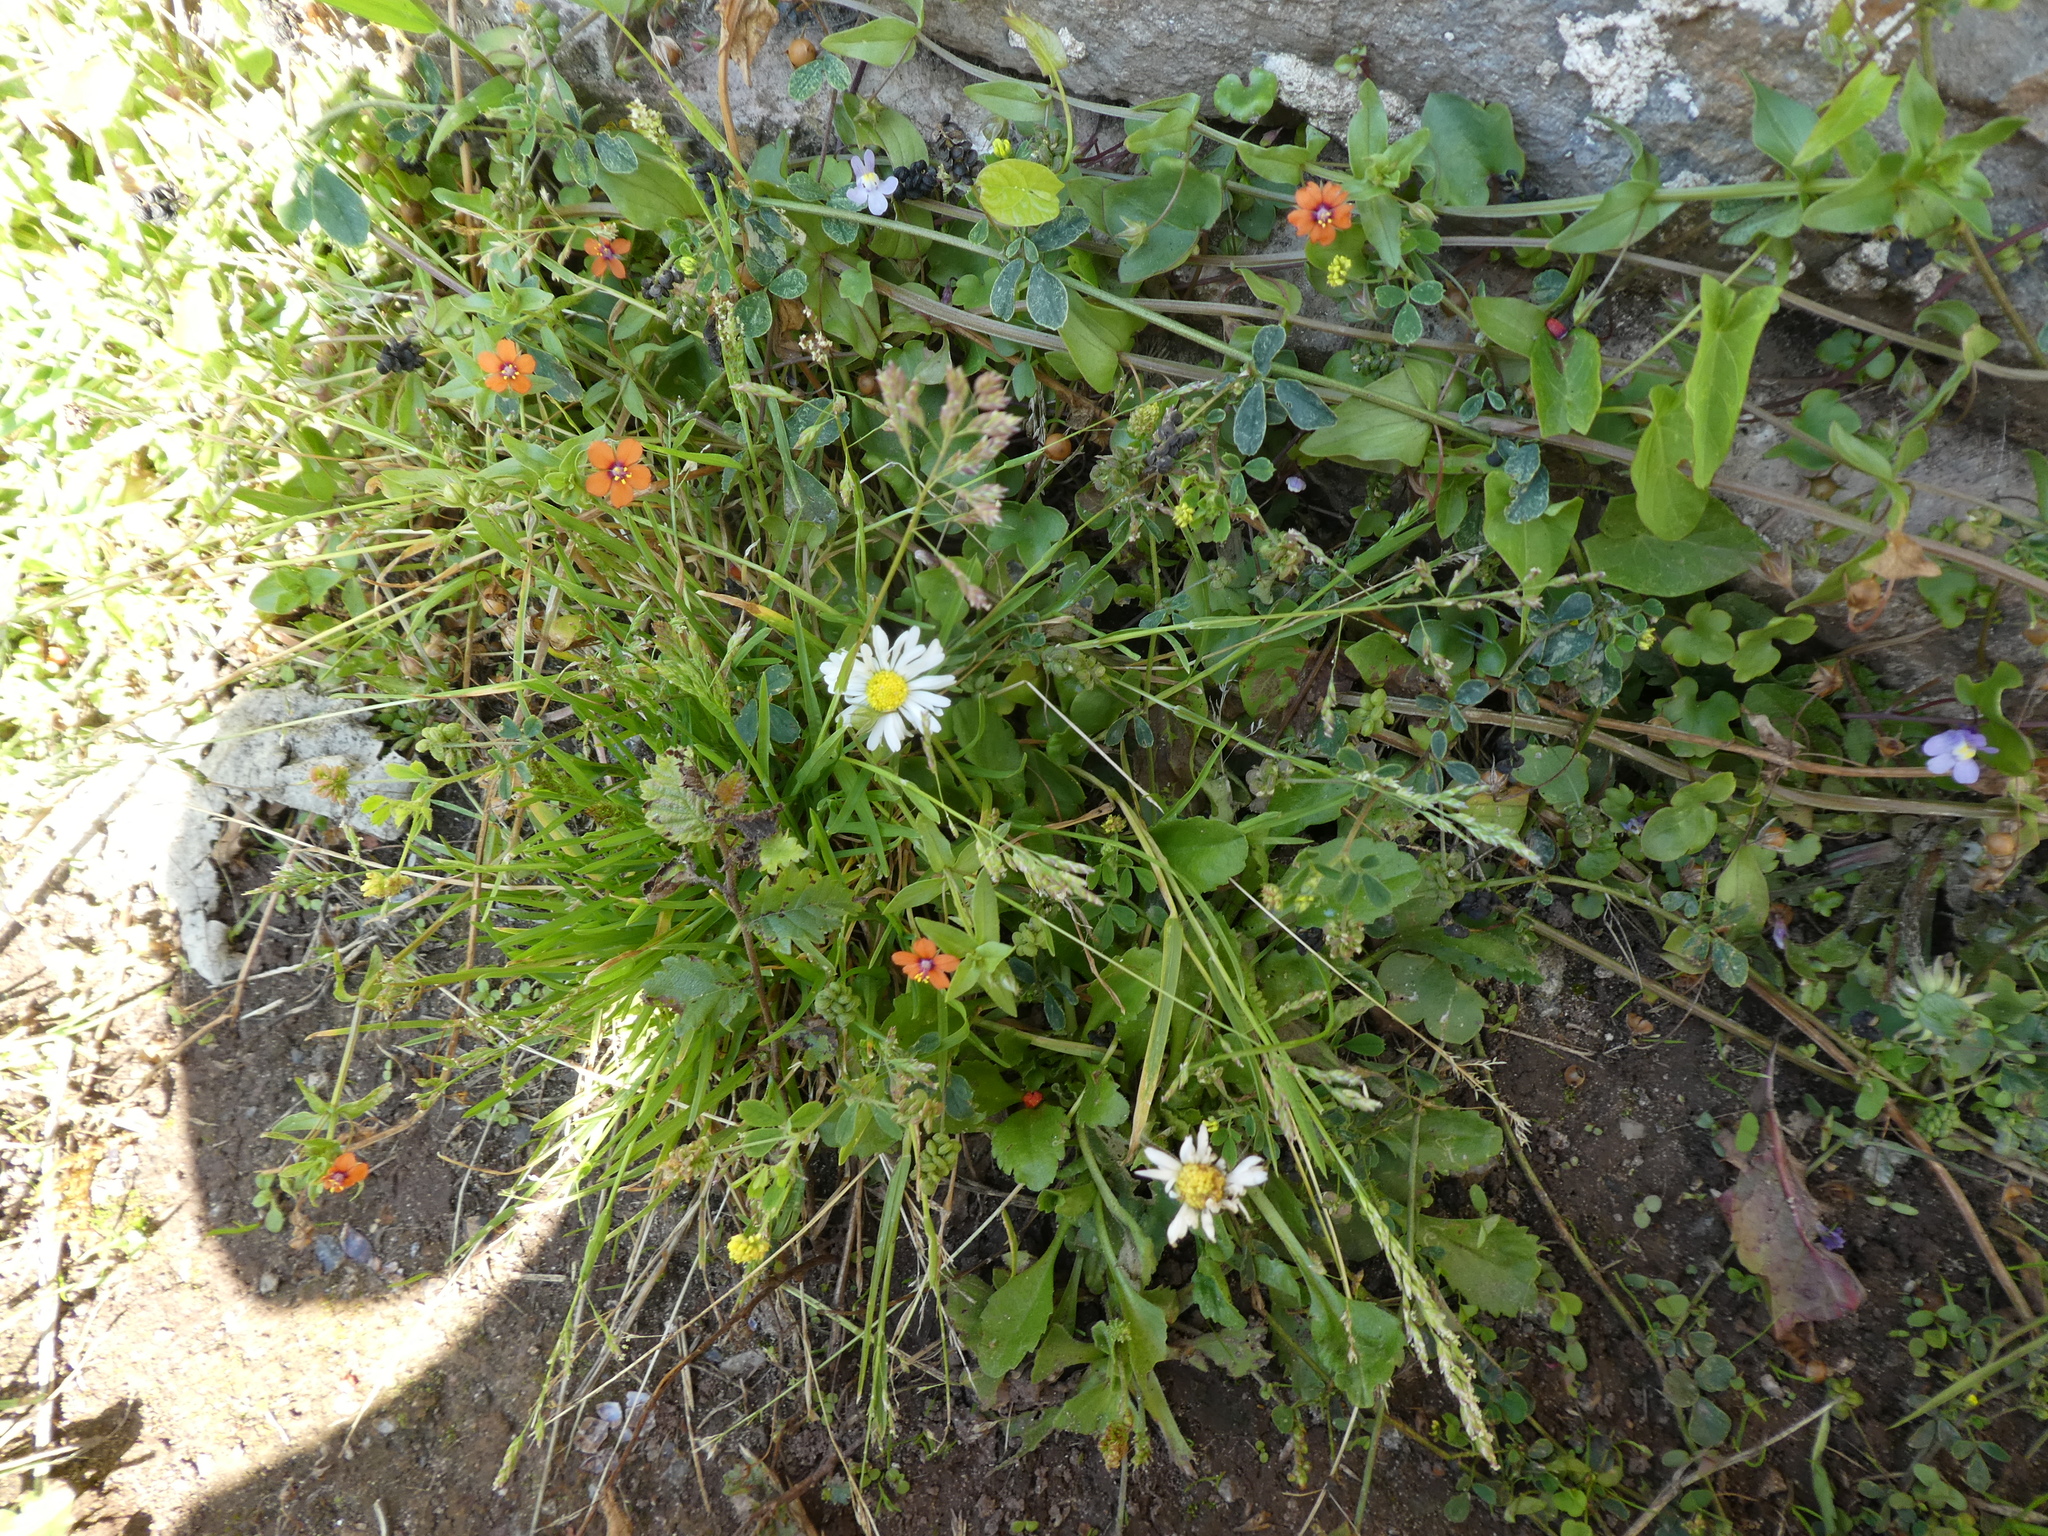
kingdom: Plantae
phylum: Tracheophyta
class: Magnoliopsida
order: Ericales
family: Primulaceae
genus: Lysimachia
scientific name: Lysimachia arvensis
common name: Scarlet pimpernel
